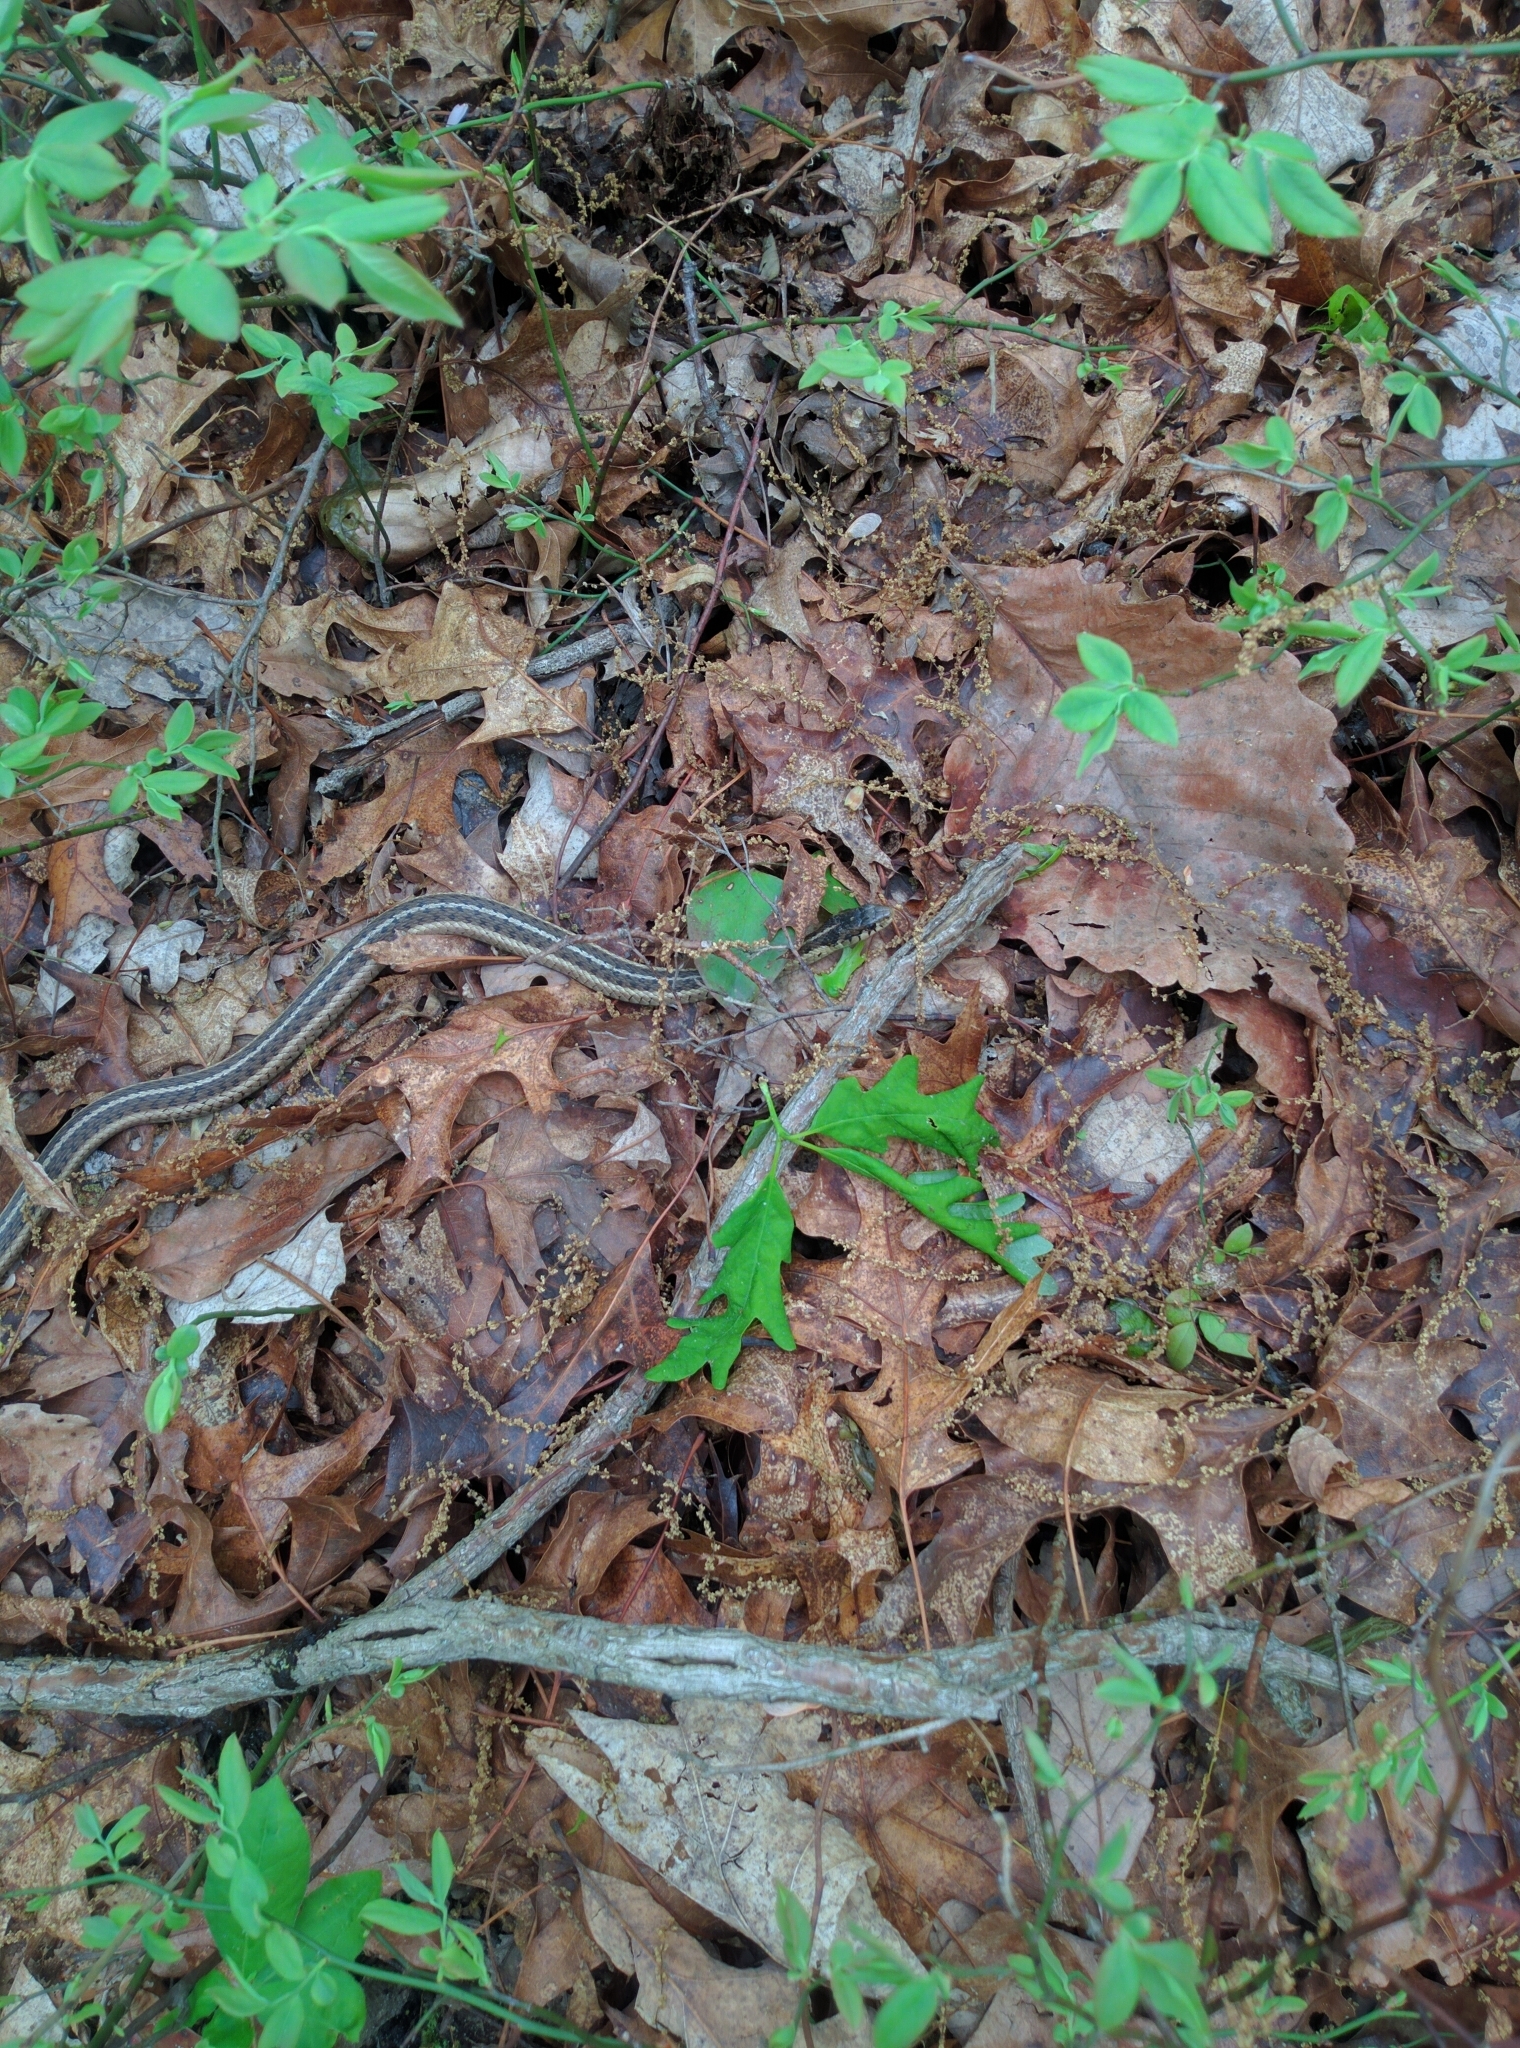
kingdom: Animalia
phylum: Chordata
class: Squamata
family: Colubridae
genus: Thamnophis
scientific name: Thamnophis sirtalis
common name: Common garter snake
